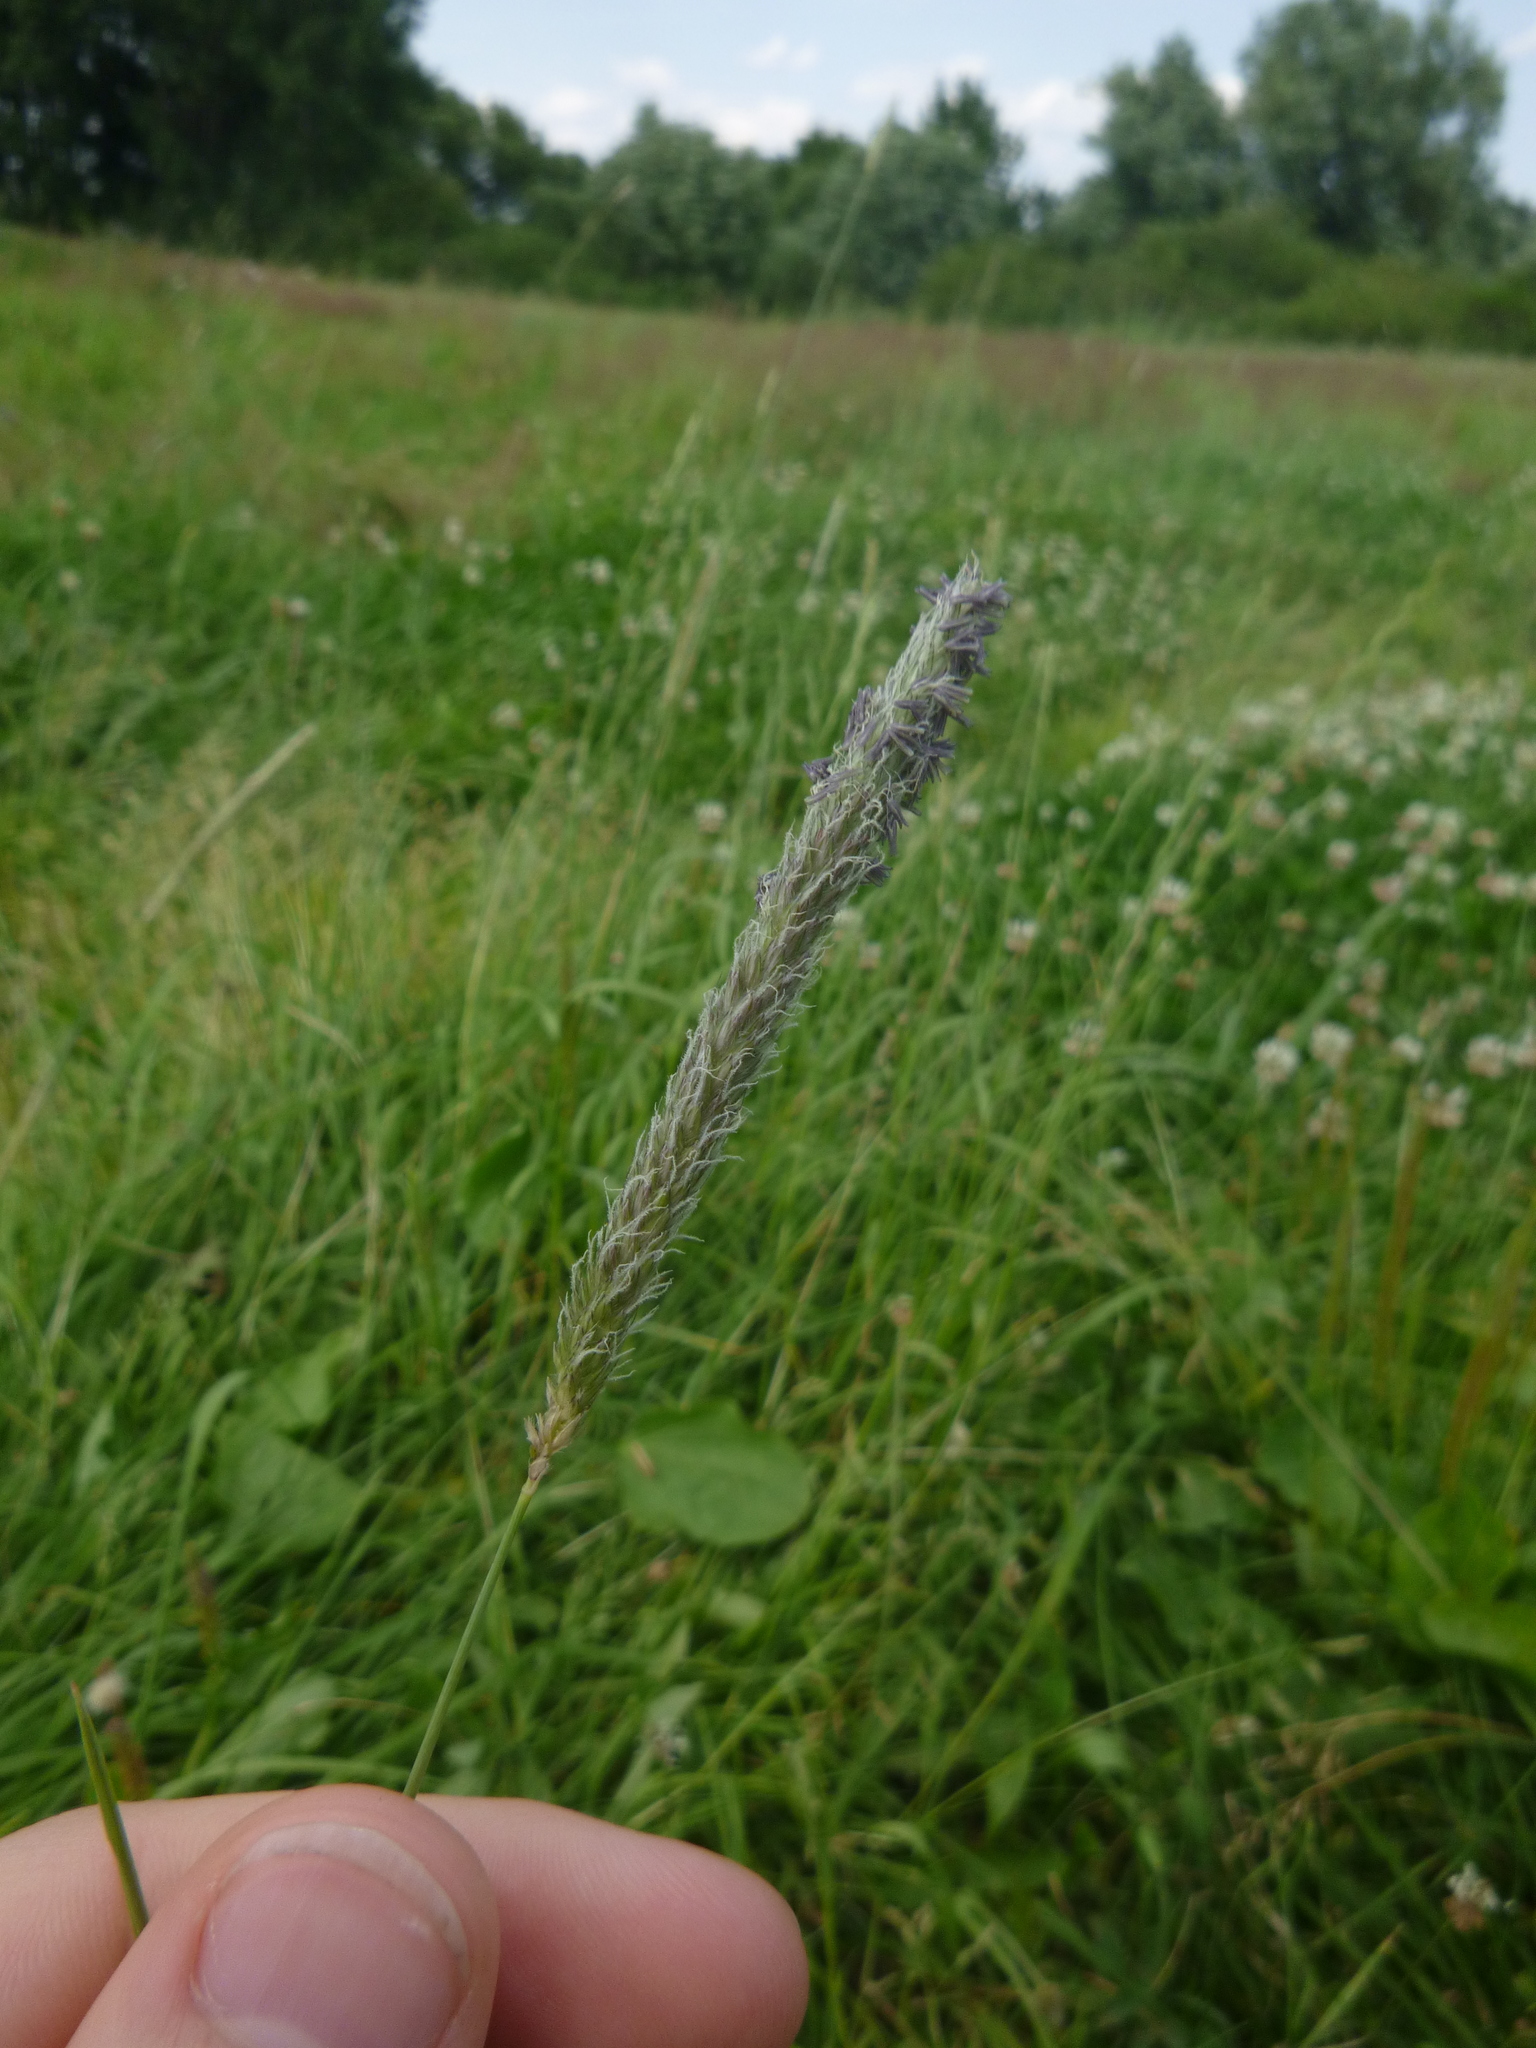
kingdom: Plantae
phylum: Tracheophyta
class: Liliopsida
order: Poales
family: Poaceae
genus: Alopecurus
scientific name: Alopecurus pratensis
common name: Meadow foxtail
